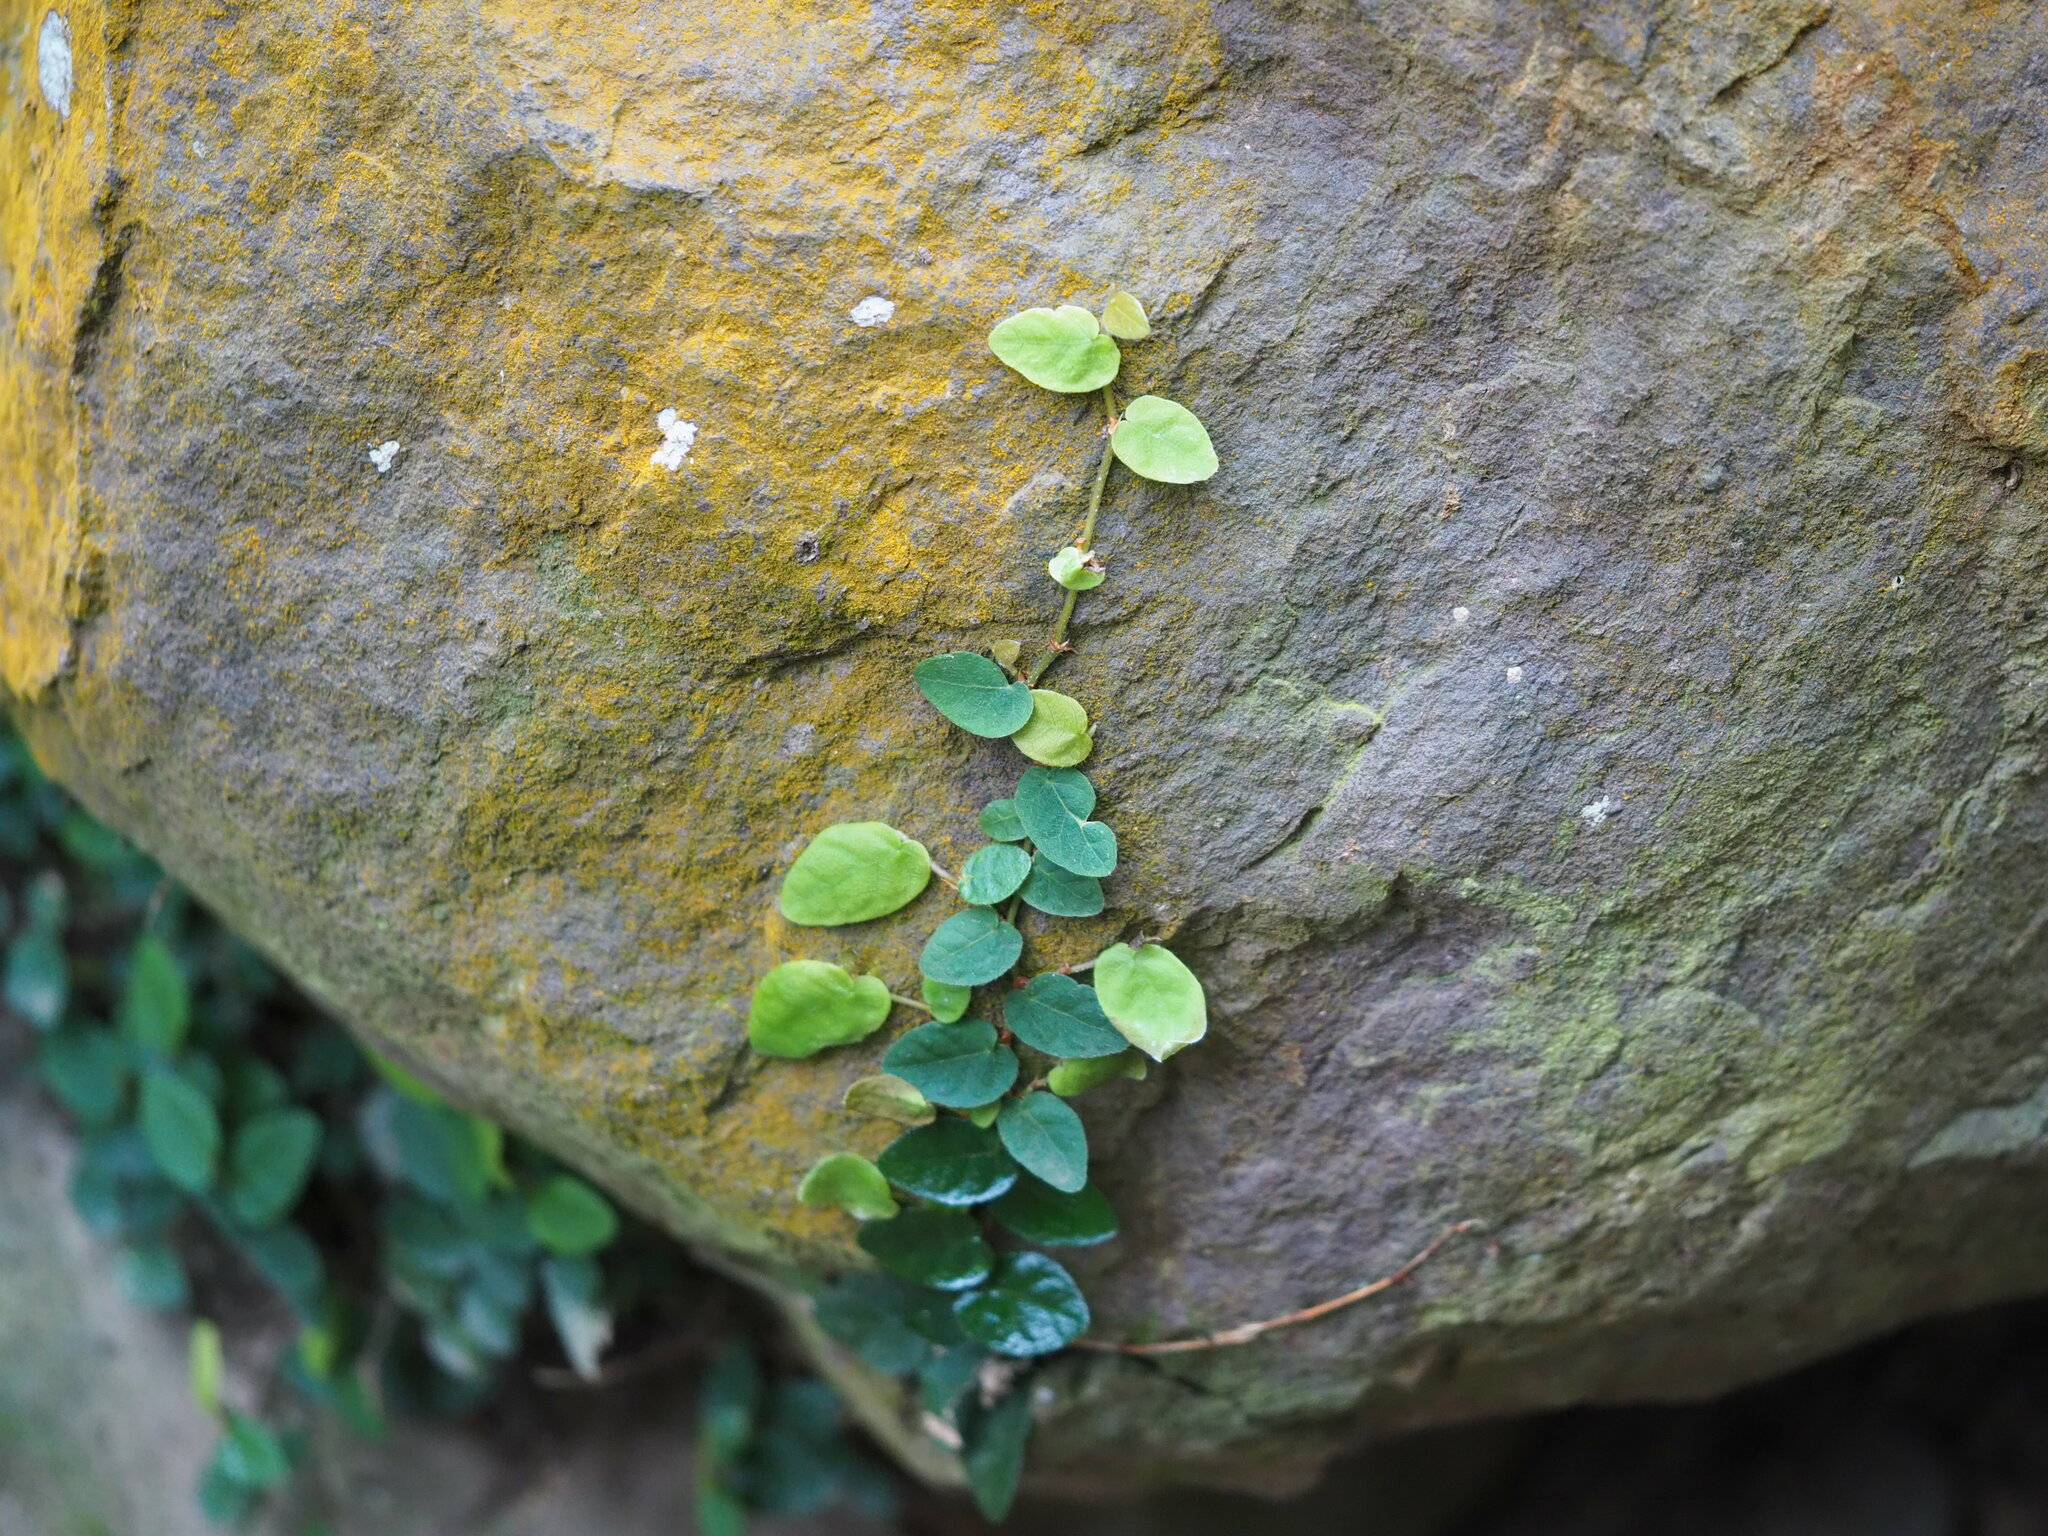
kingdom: Plantae
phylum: Tracheophyta
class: Magnoliopsida
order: Rosales
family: Moraceae
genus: Ficus
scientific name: Ficus pumila
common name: Climbingfig
